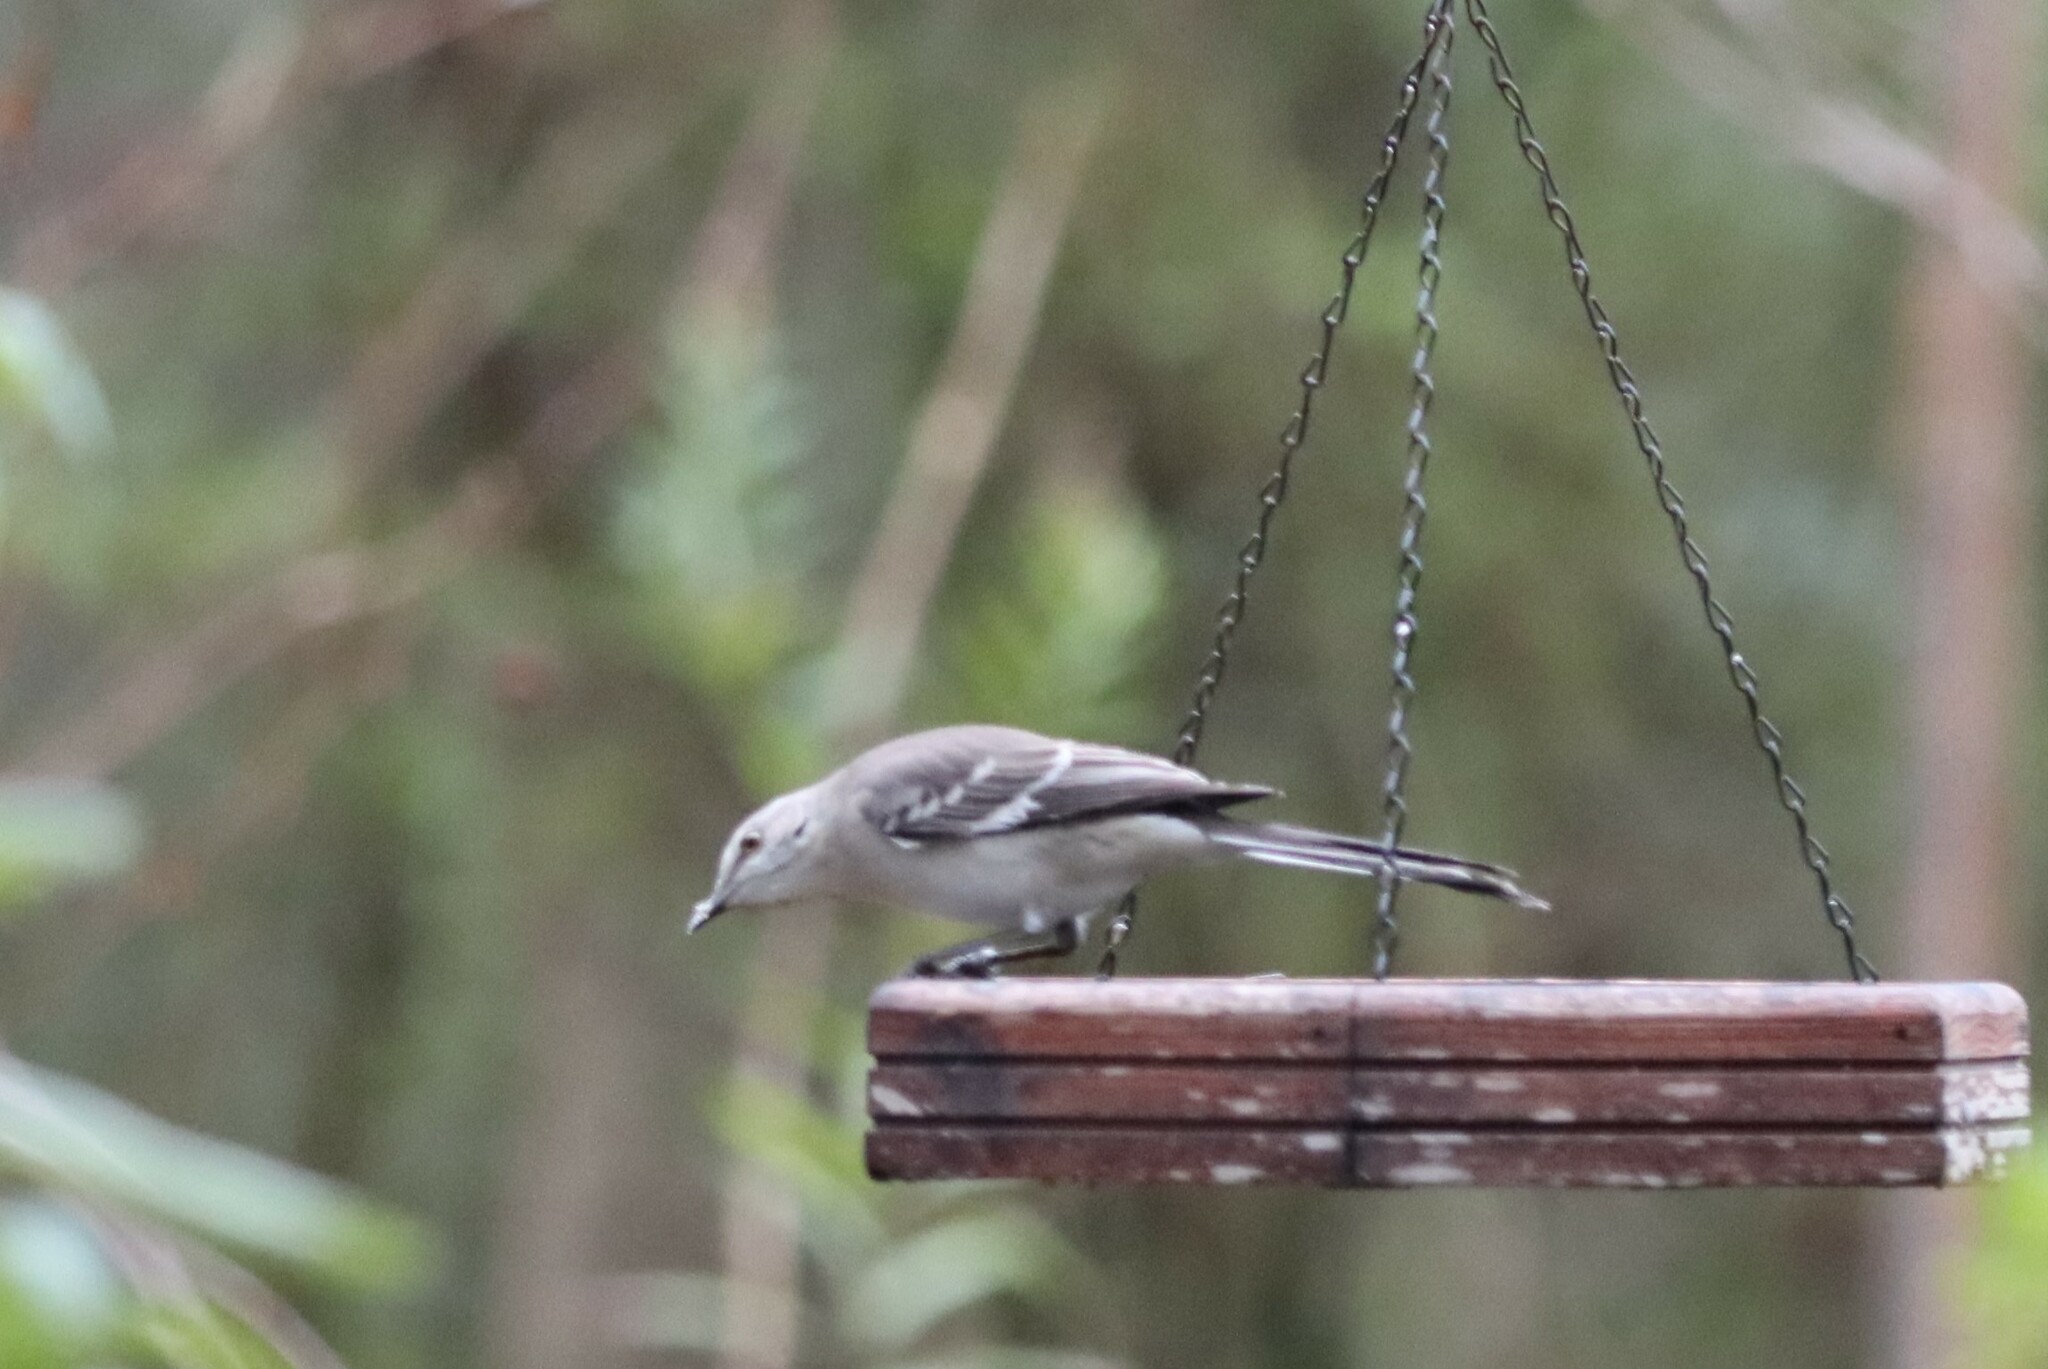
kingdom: Animalia
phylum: Chordata
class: Aves
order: Passeriformes
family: Mimidae
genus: Mimus
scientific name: Mimus polyglottos
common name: Northern mockingbird
